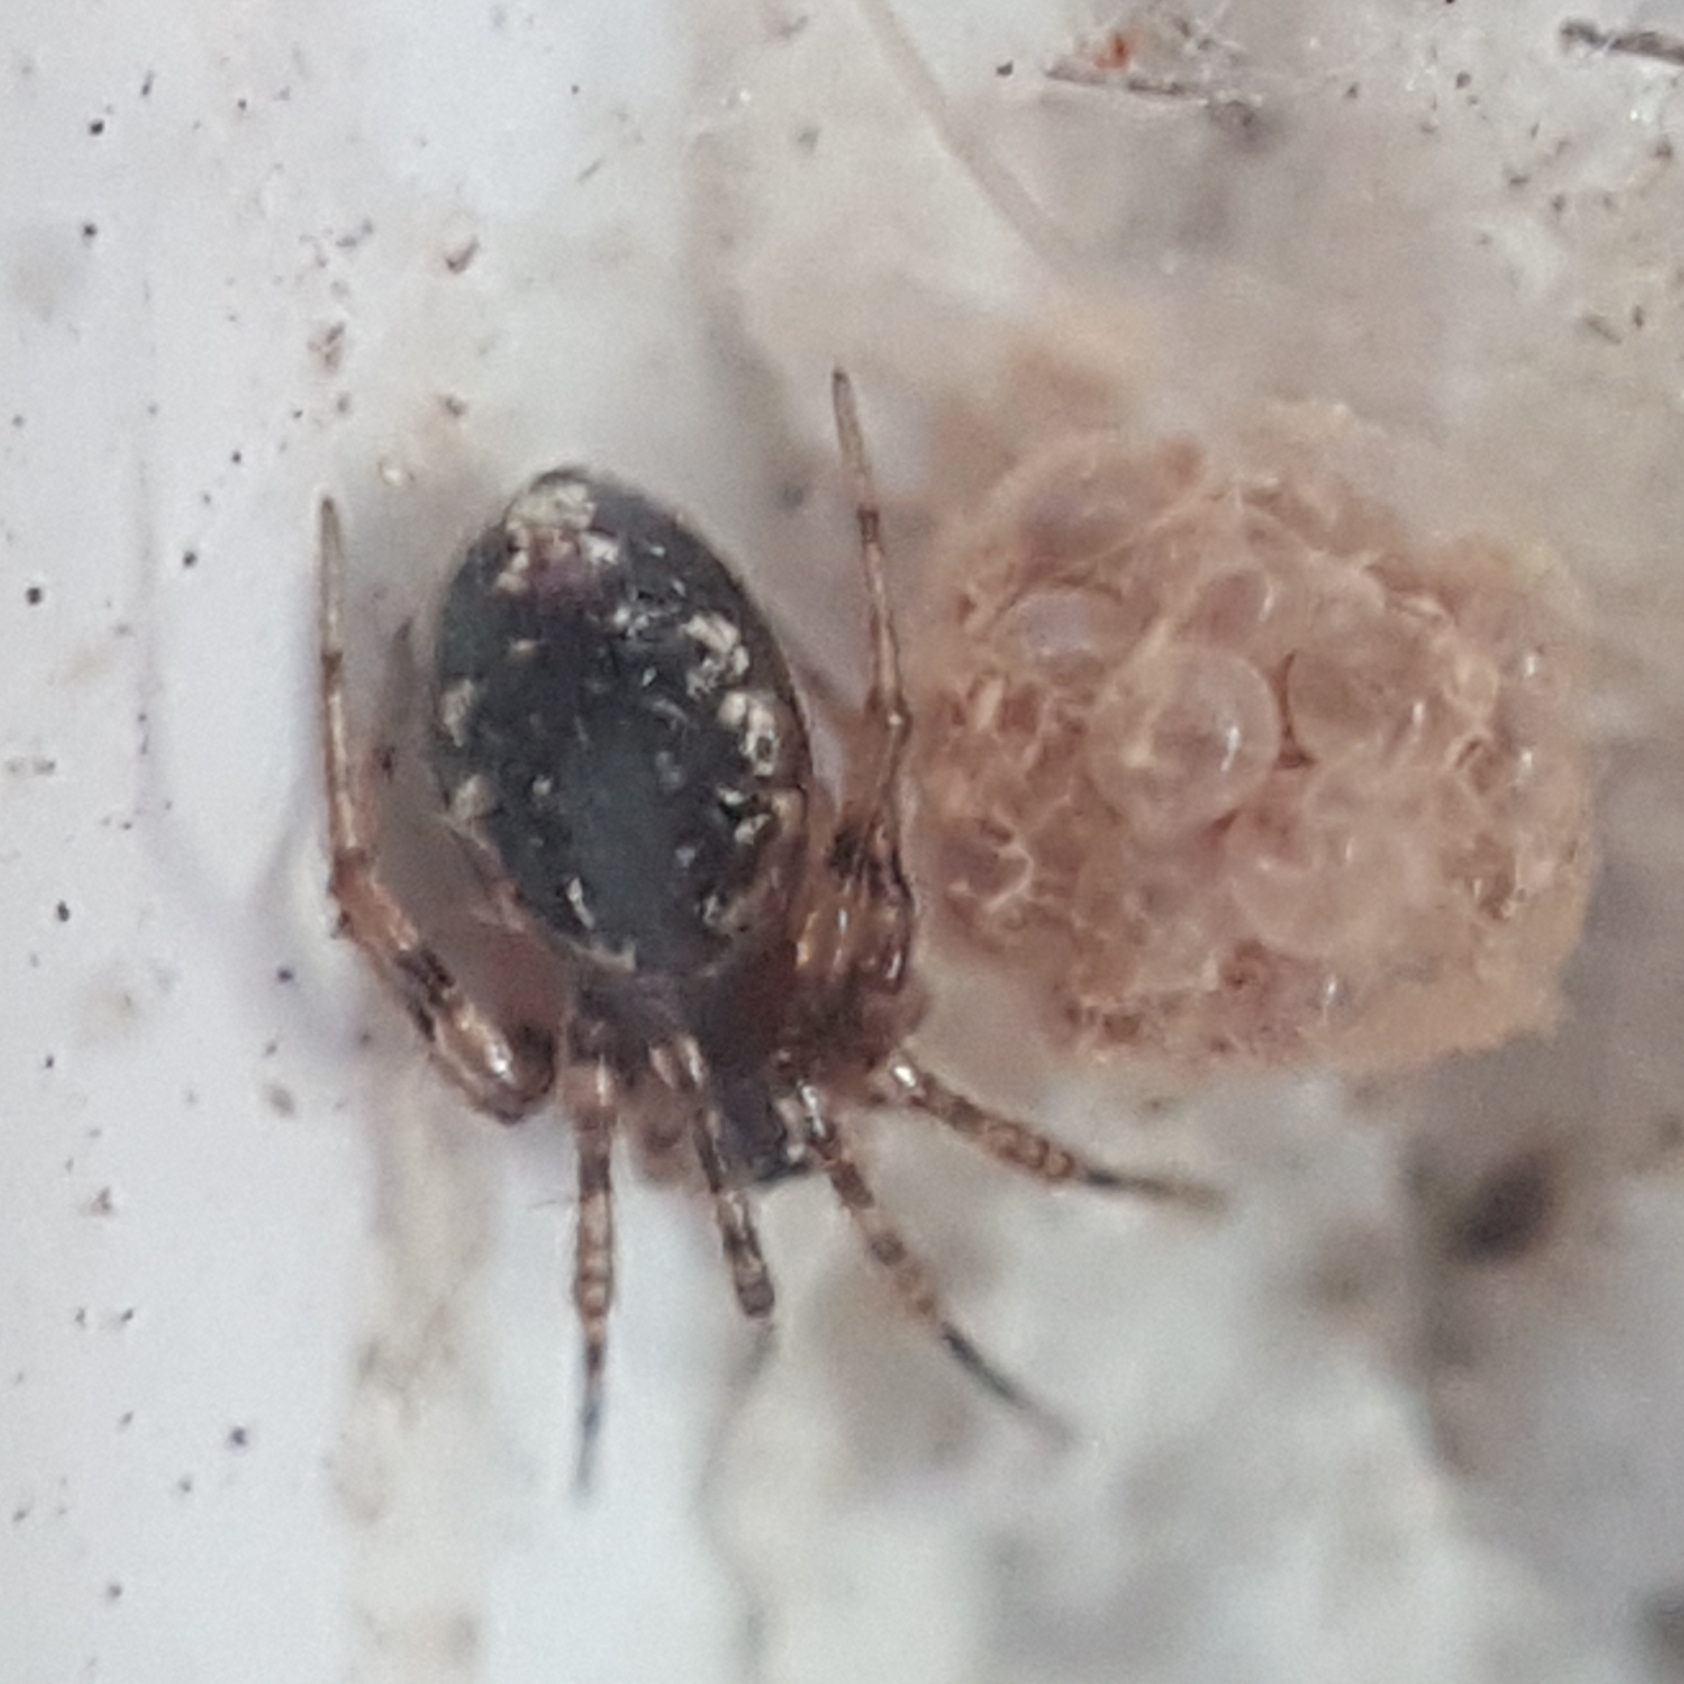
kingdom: Animalia
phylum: Arthropoda
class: Arachnida
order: Araneae
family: Theridiidae
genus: Sardinidion
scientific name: Sardinidion blackwalli
